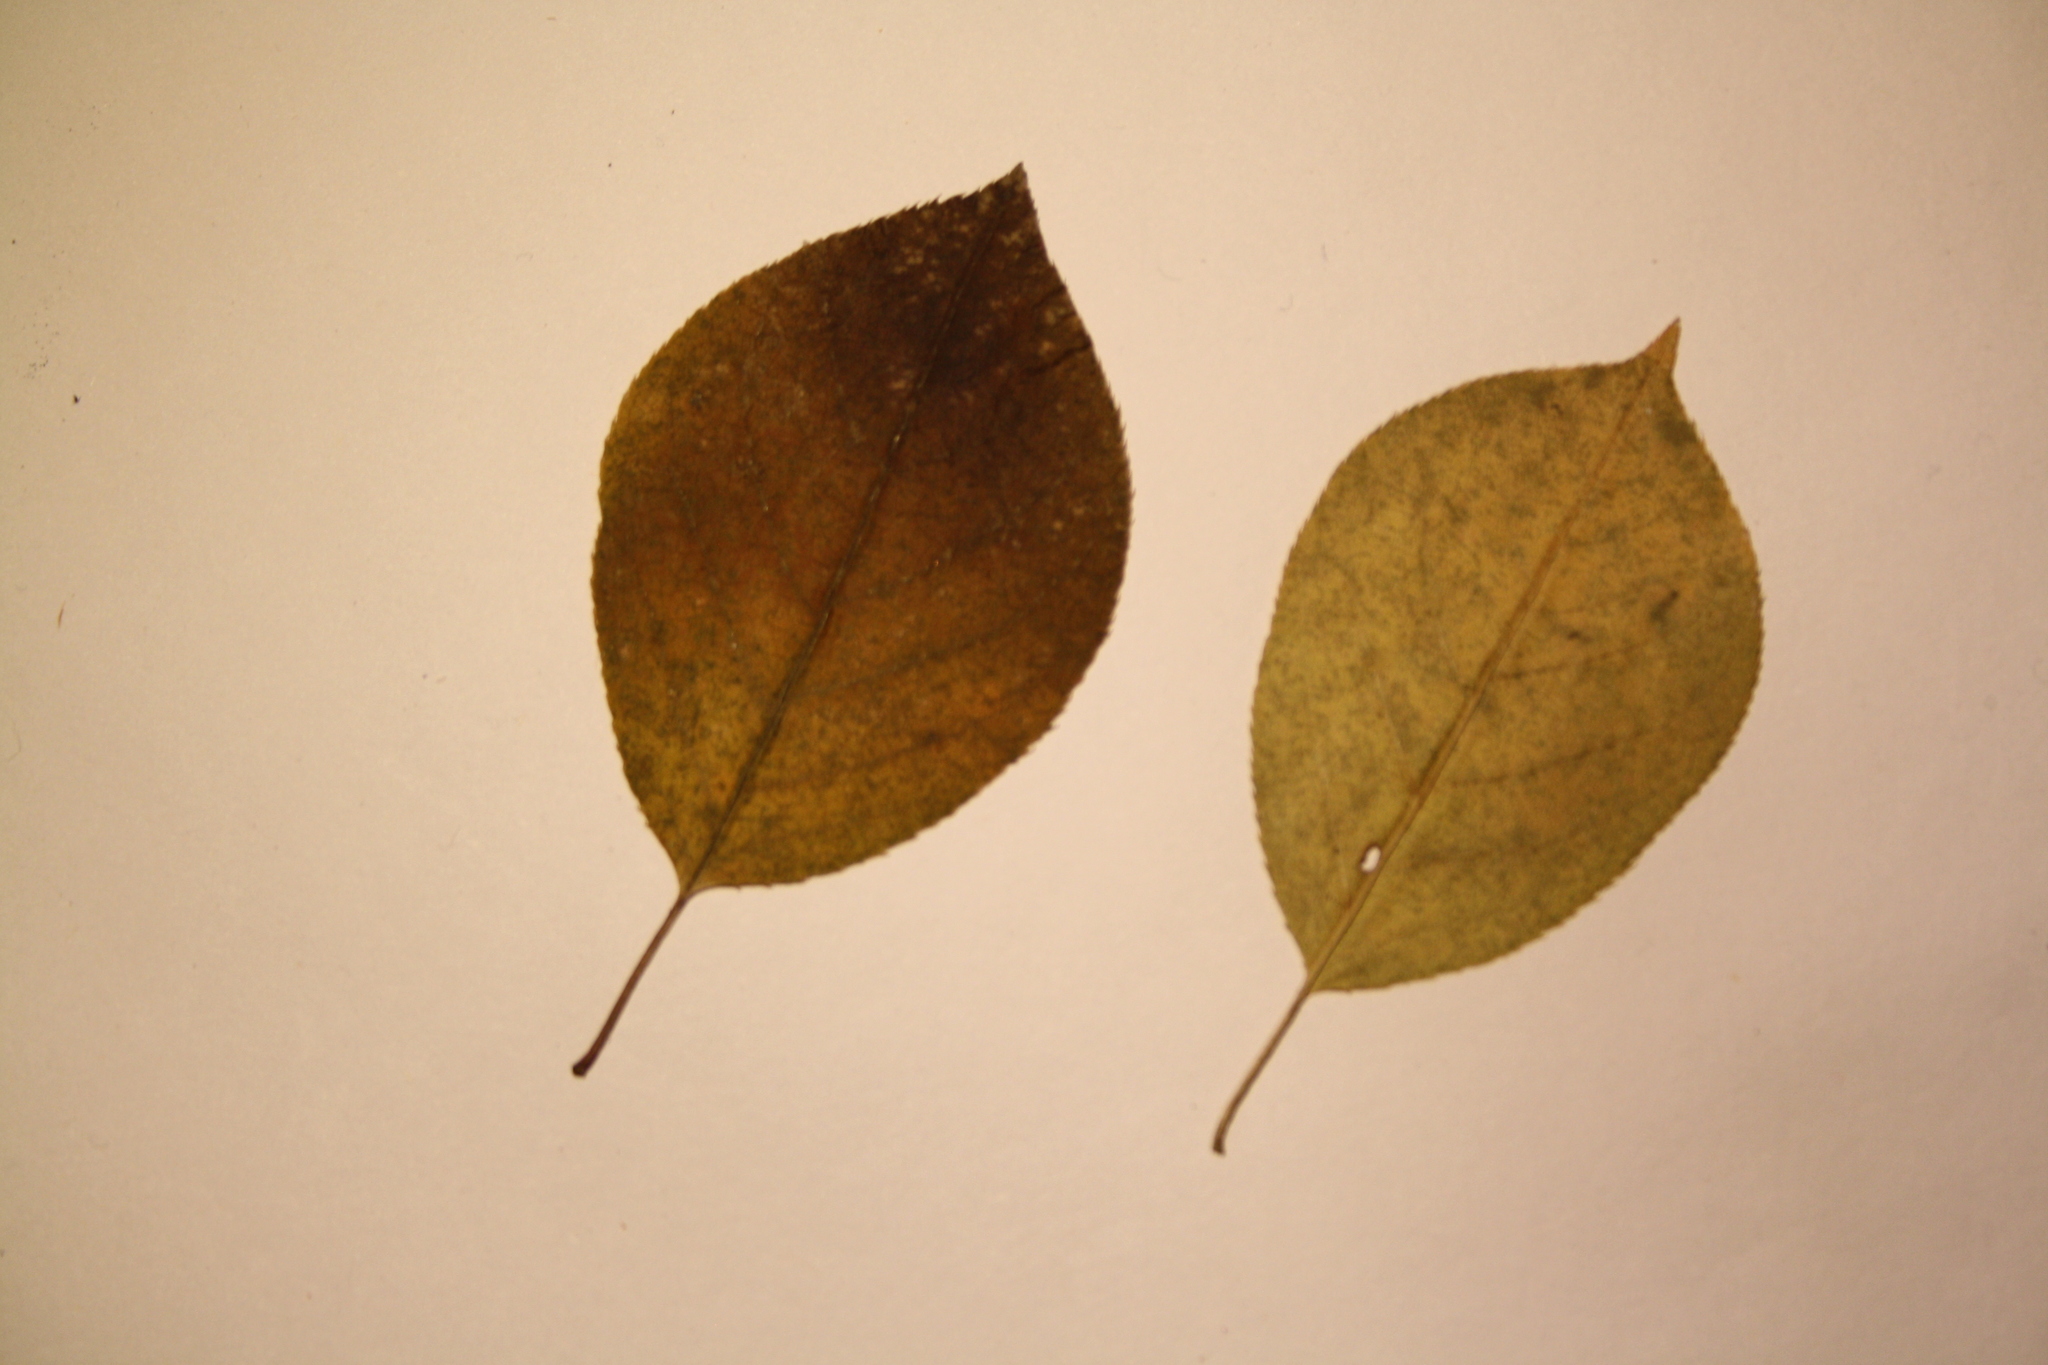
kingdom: Plantae
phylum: Tracheophyta
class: Magnoliopsida
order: Rosales
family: Rosaceae
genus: Prunus
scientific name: Prunus virginiana
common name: Chokecherry
